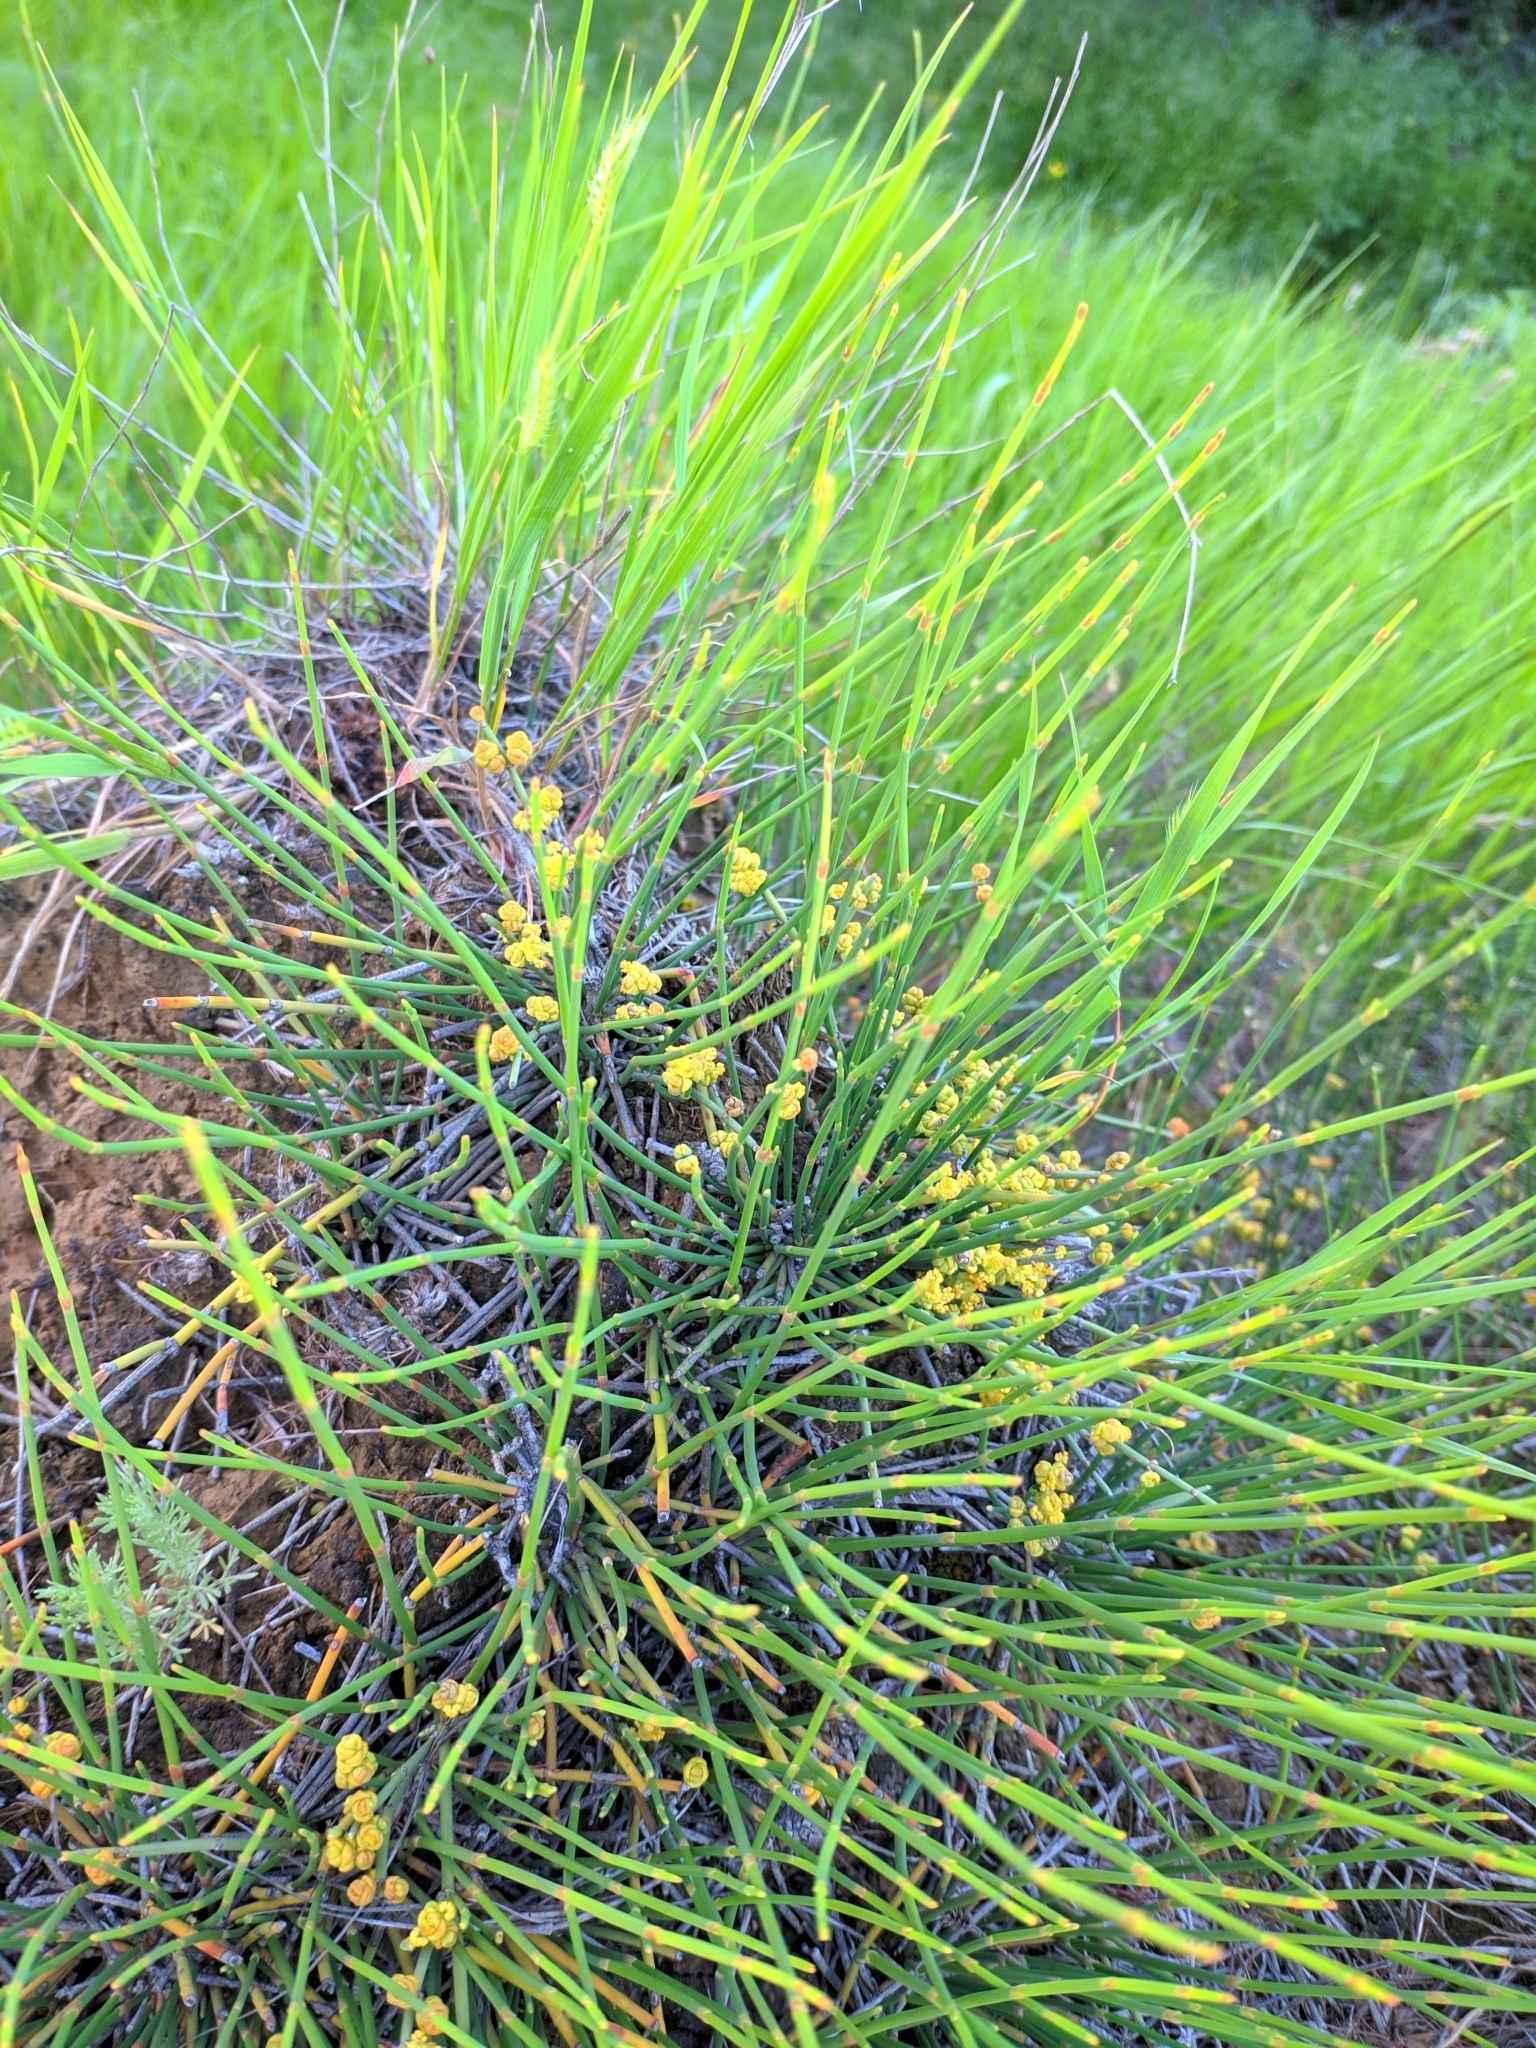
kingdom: Plantae
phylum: Tracheophyta
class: Gnetopsida
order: Ephedrales
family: Ephedraceae
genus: Ephedra
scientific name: Ephedra distachya
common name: Sea grape
